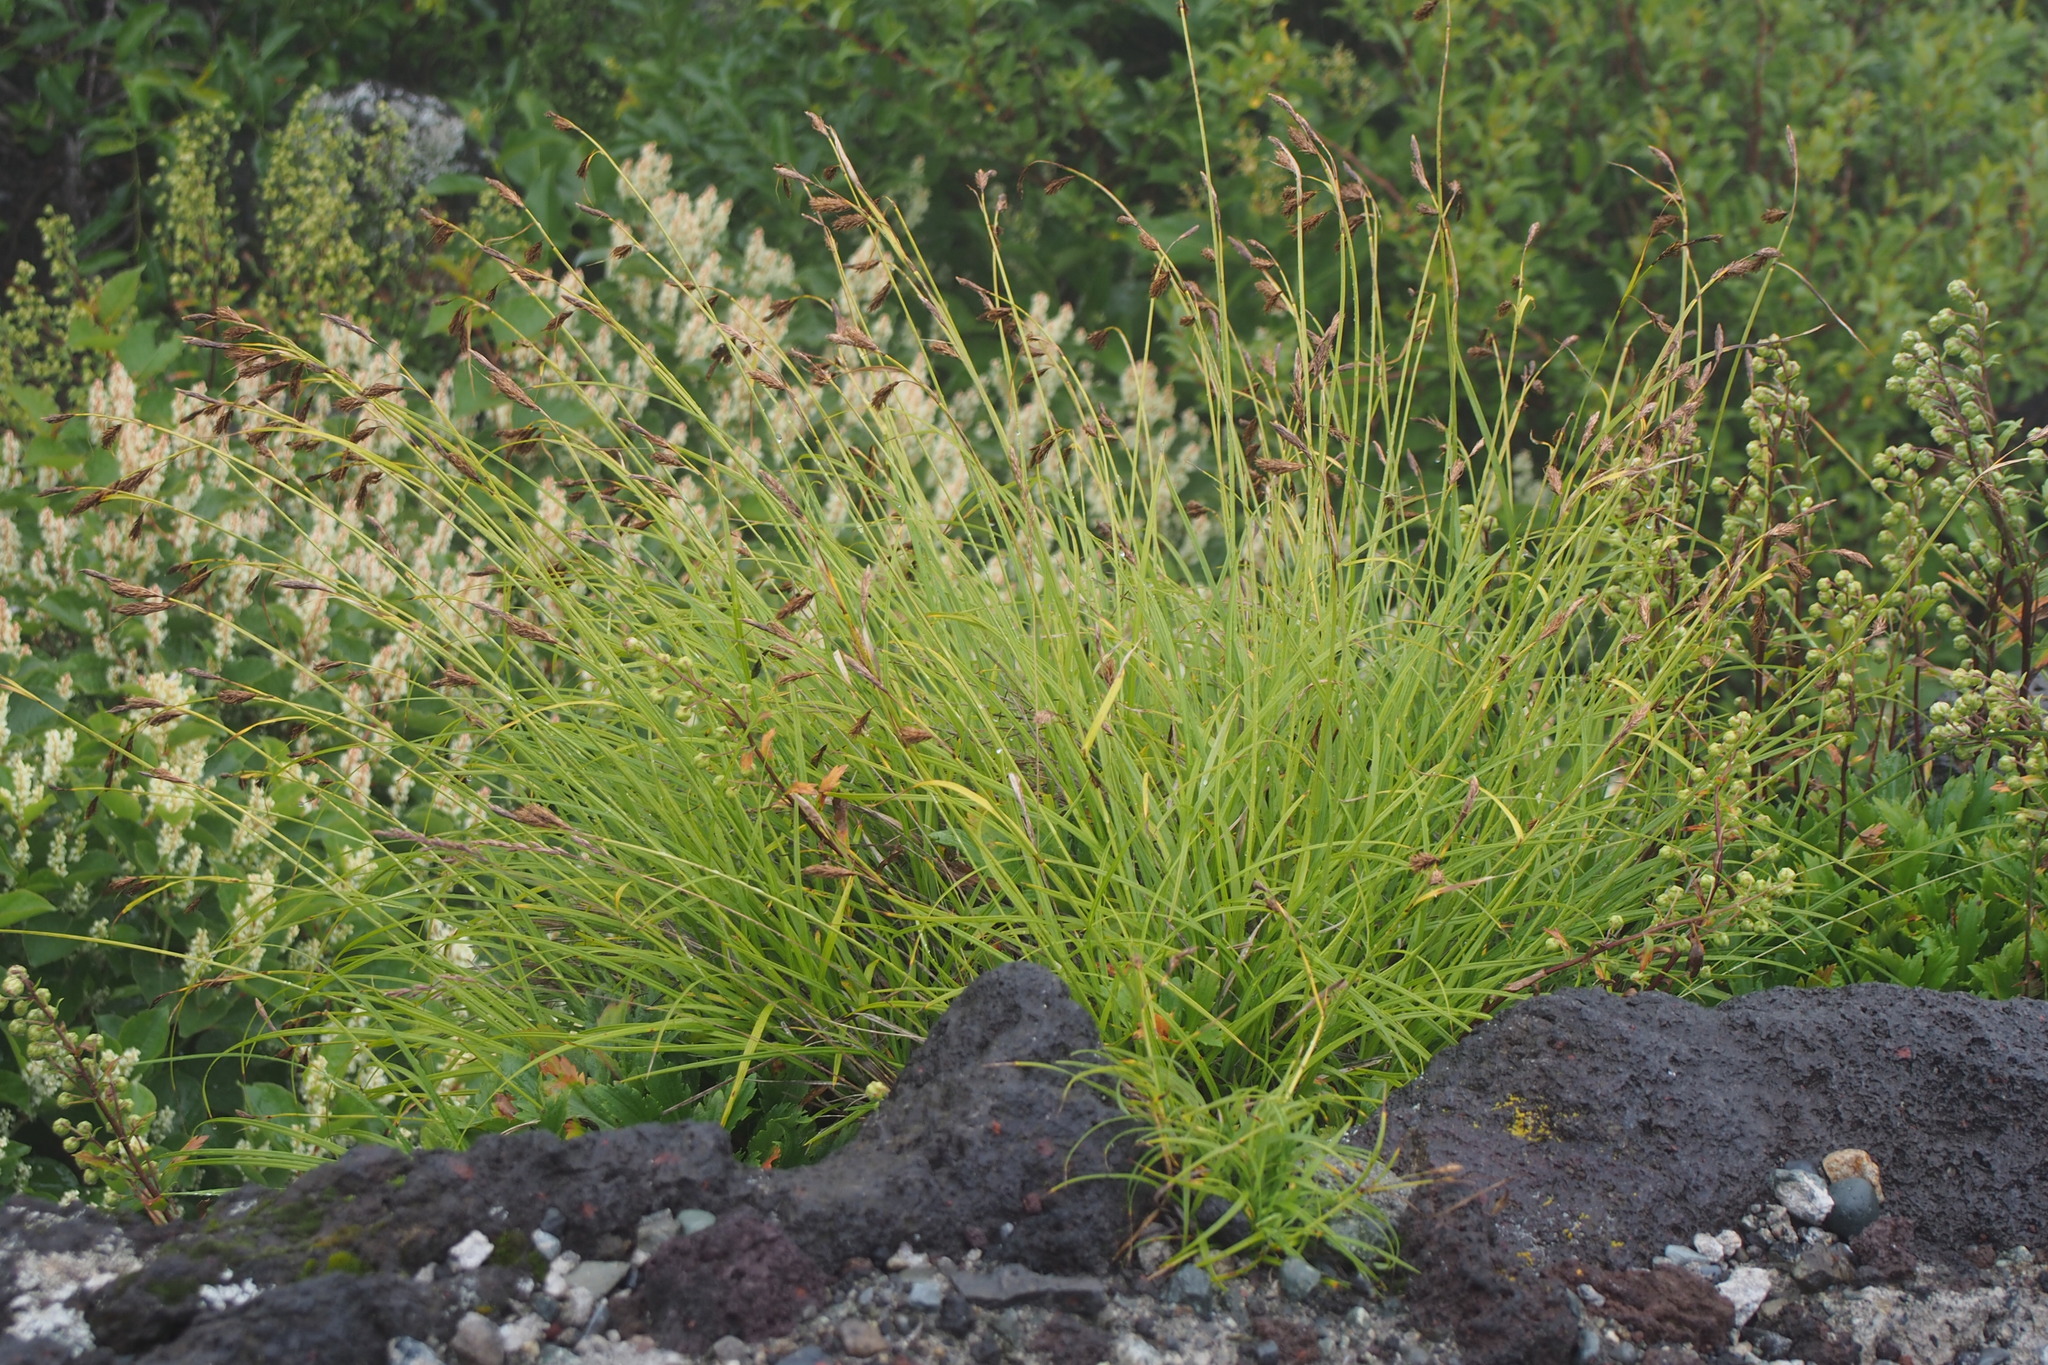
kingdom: Plantae
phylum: Tracheophyta
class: Liliopsida
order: Poales
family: Cyperaceae
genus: Carex
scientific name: Carex doenitzii
